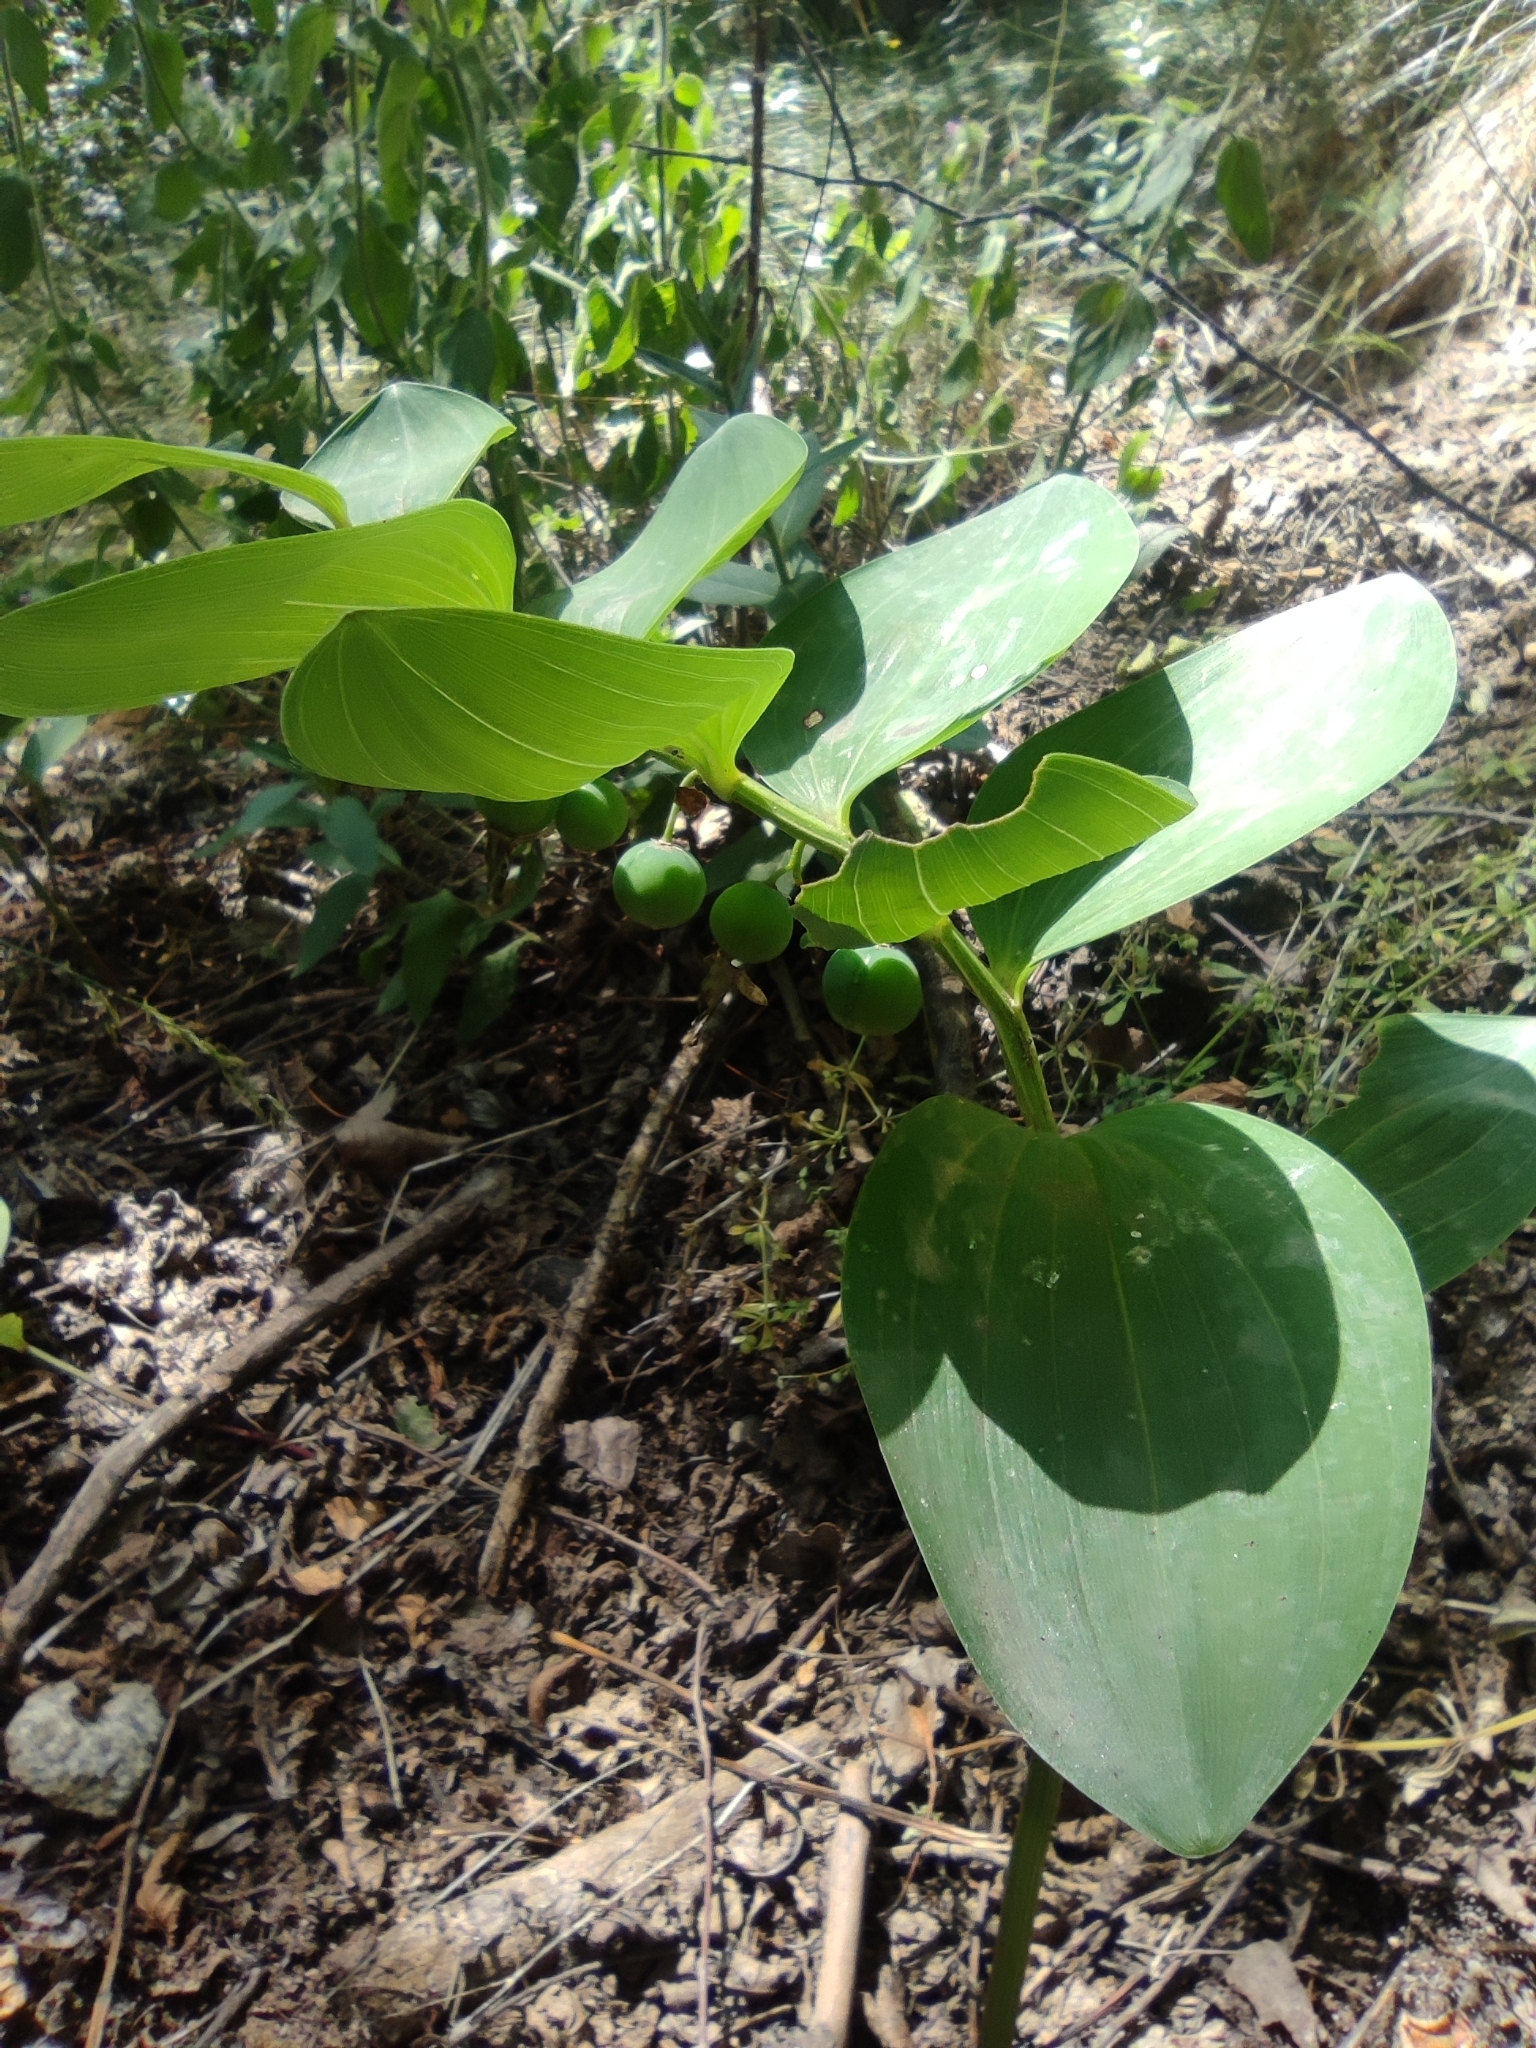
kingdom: Plantae
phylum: Tracheophyta
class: Liliopsida
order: Asparagales
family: Asparagaceae
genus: Polygonatum
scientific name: Polygonatum odoratum
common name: Angular solomon's-seal
